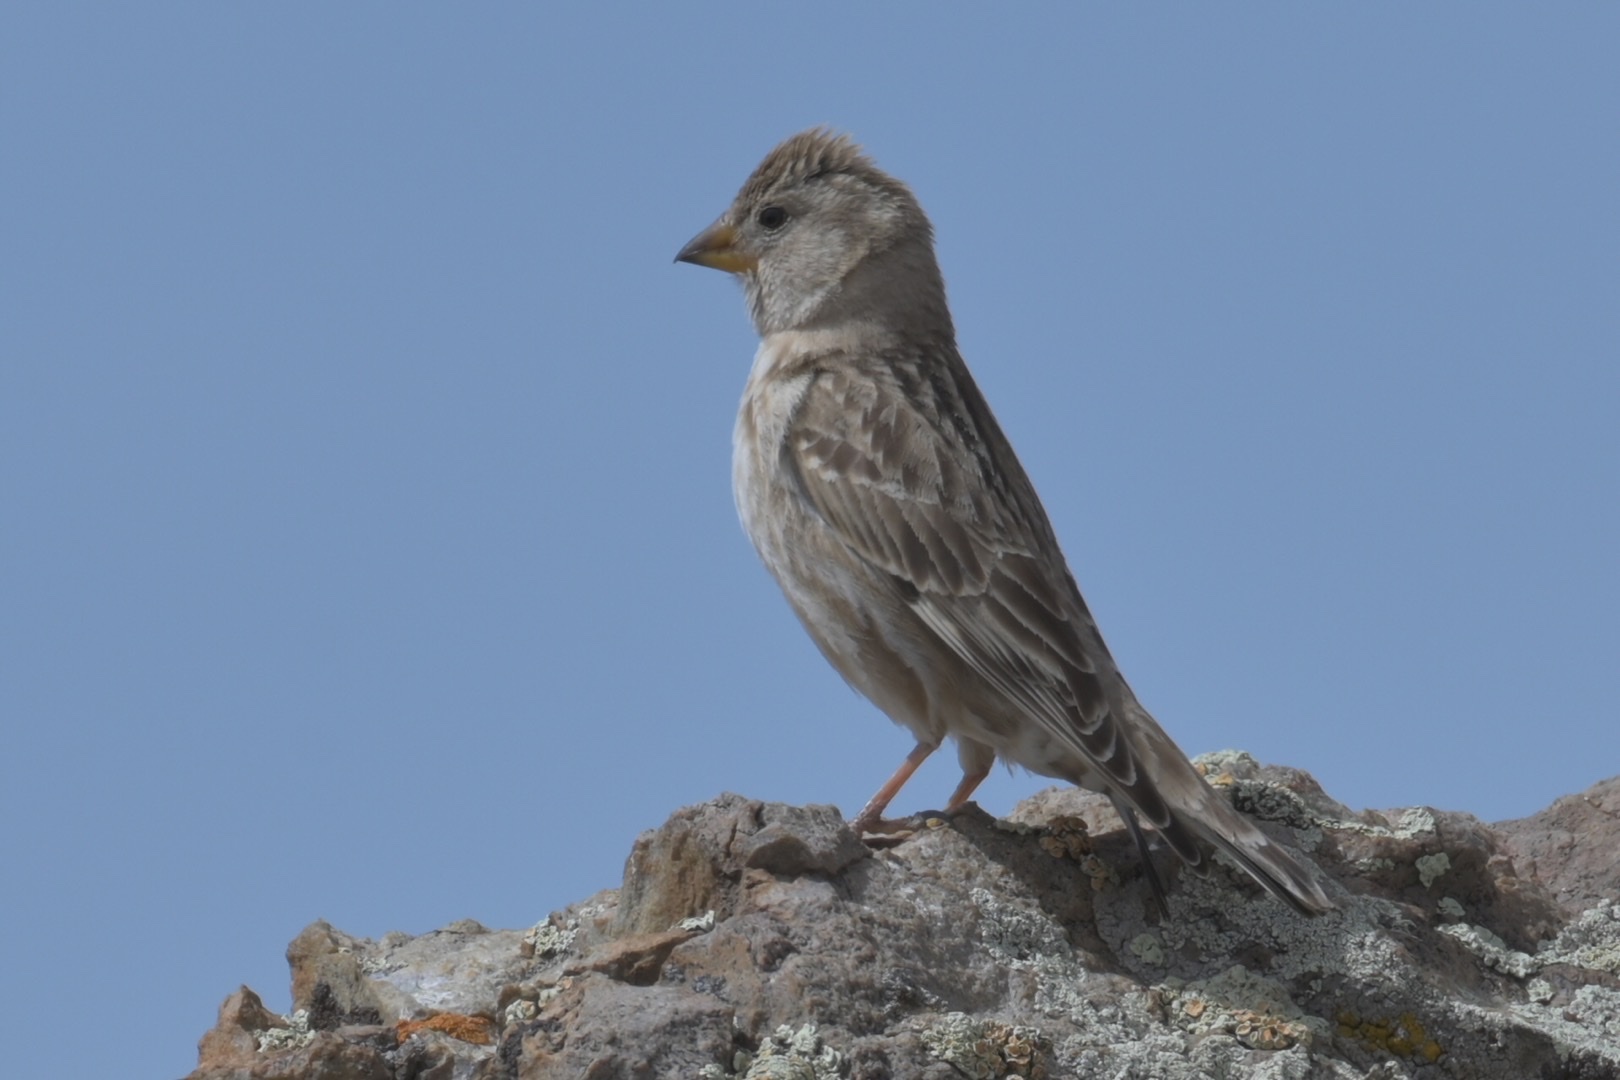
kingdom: Animalia
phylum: Chordata
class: Aves
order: Passeriformes
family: Passeridae
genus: Petronia
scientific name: Petronia petronia
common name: Rock sparrow
